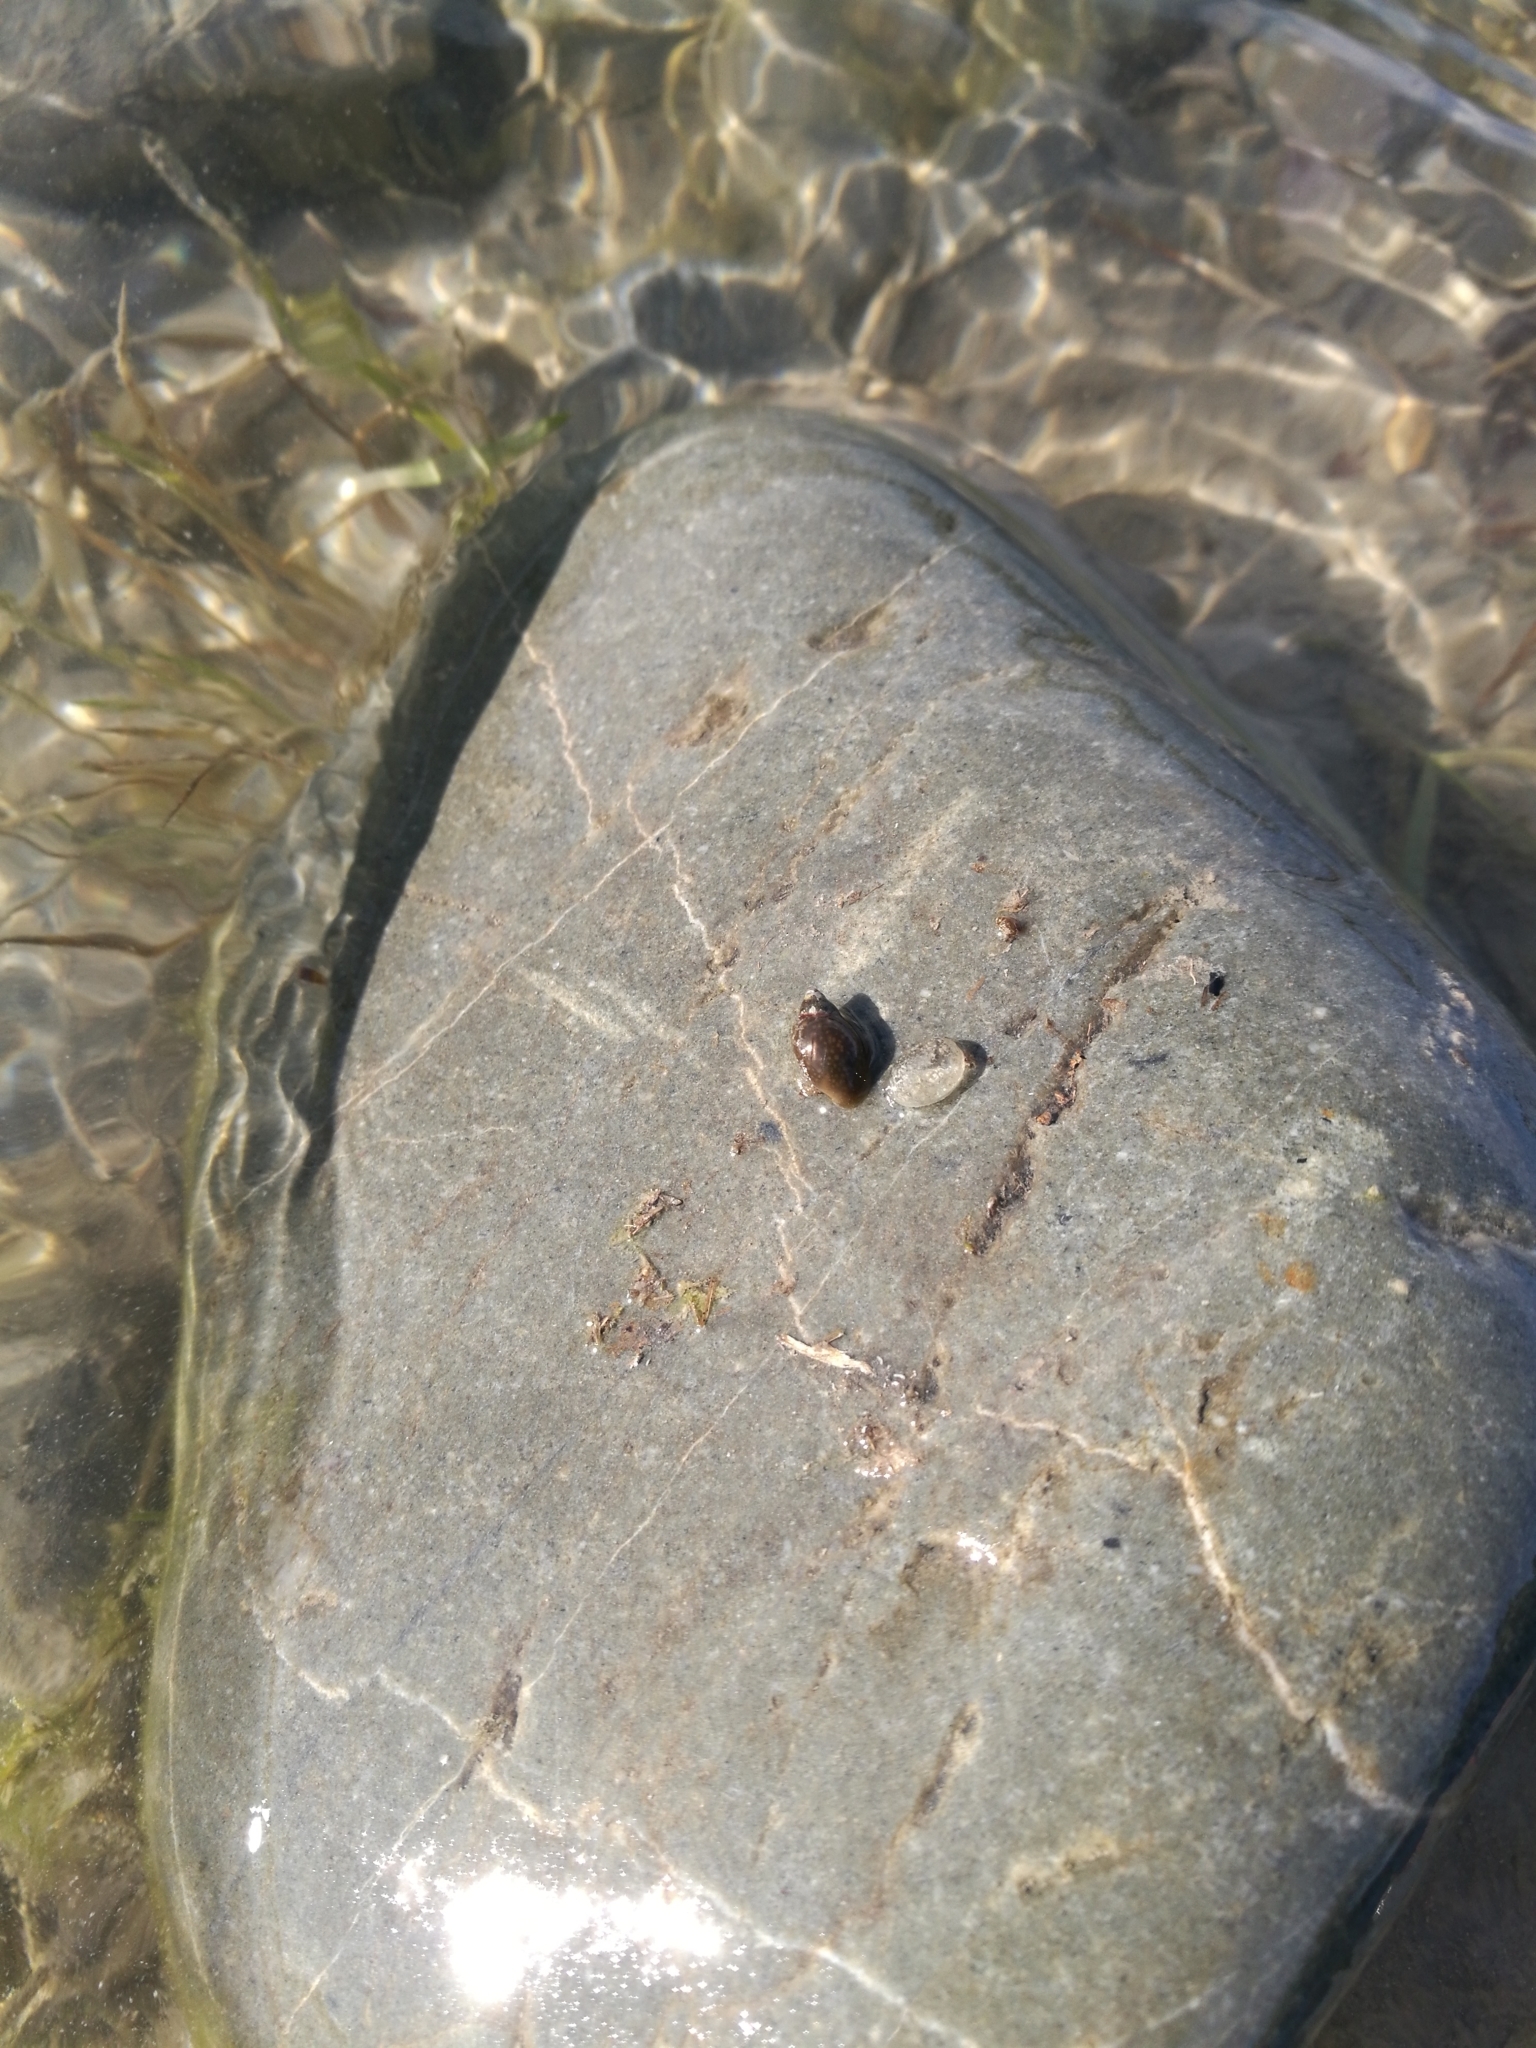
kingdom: Animalia
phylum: Mollusca
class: Gastropoda
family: Physidae
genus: Physella
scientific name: Physella acuta
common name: European physa
